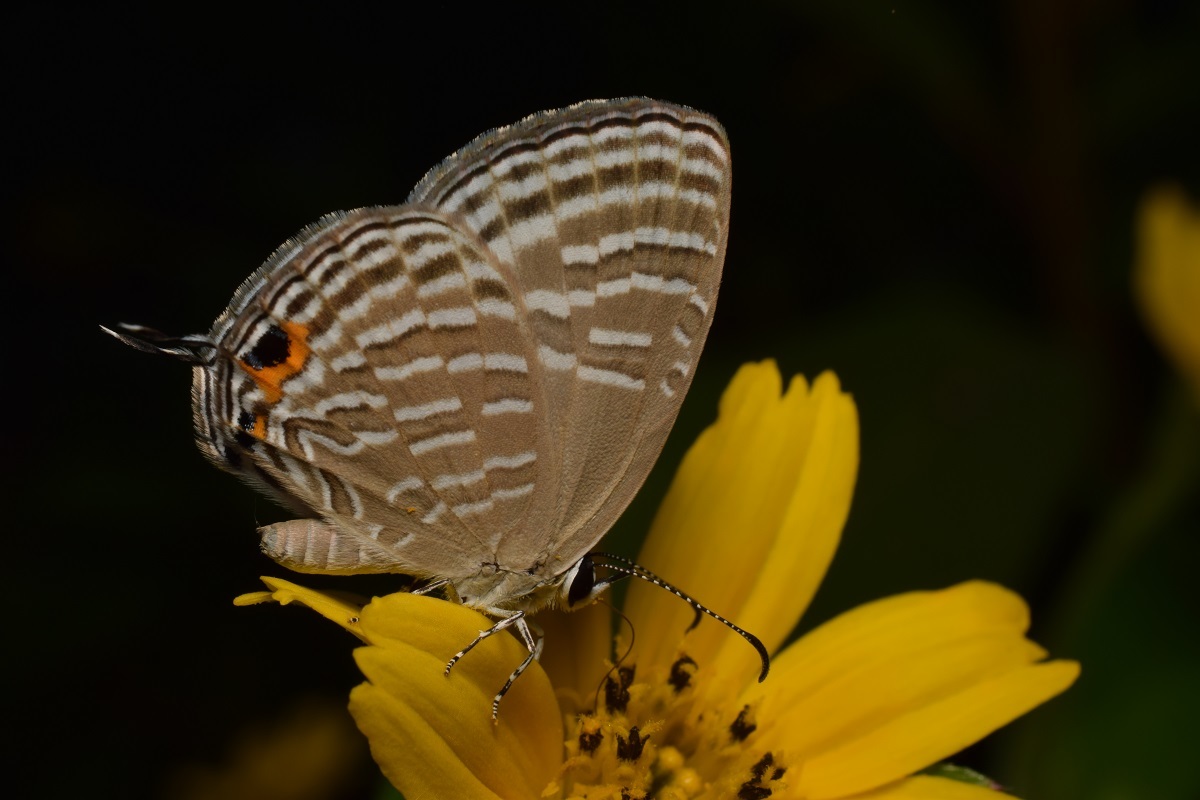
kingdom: Animalia
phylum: Arthropoda
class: Insecta
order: Lepidoptera
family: Lycaenidae
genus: Jamides
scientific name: Jamides celeno
